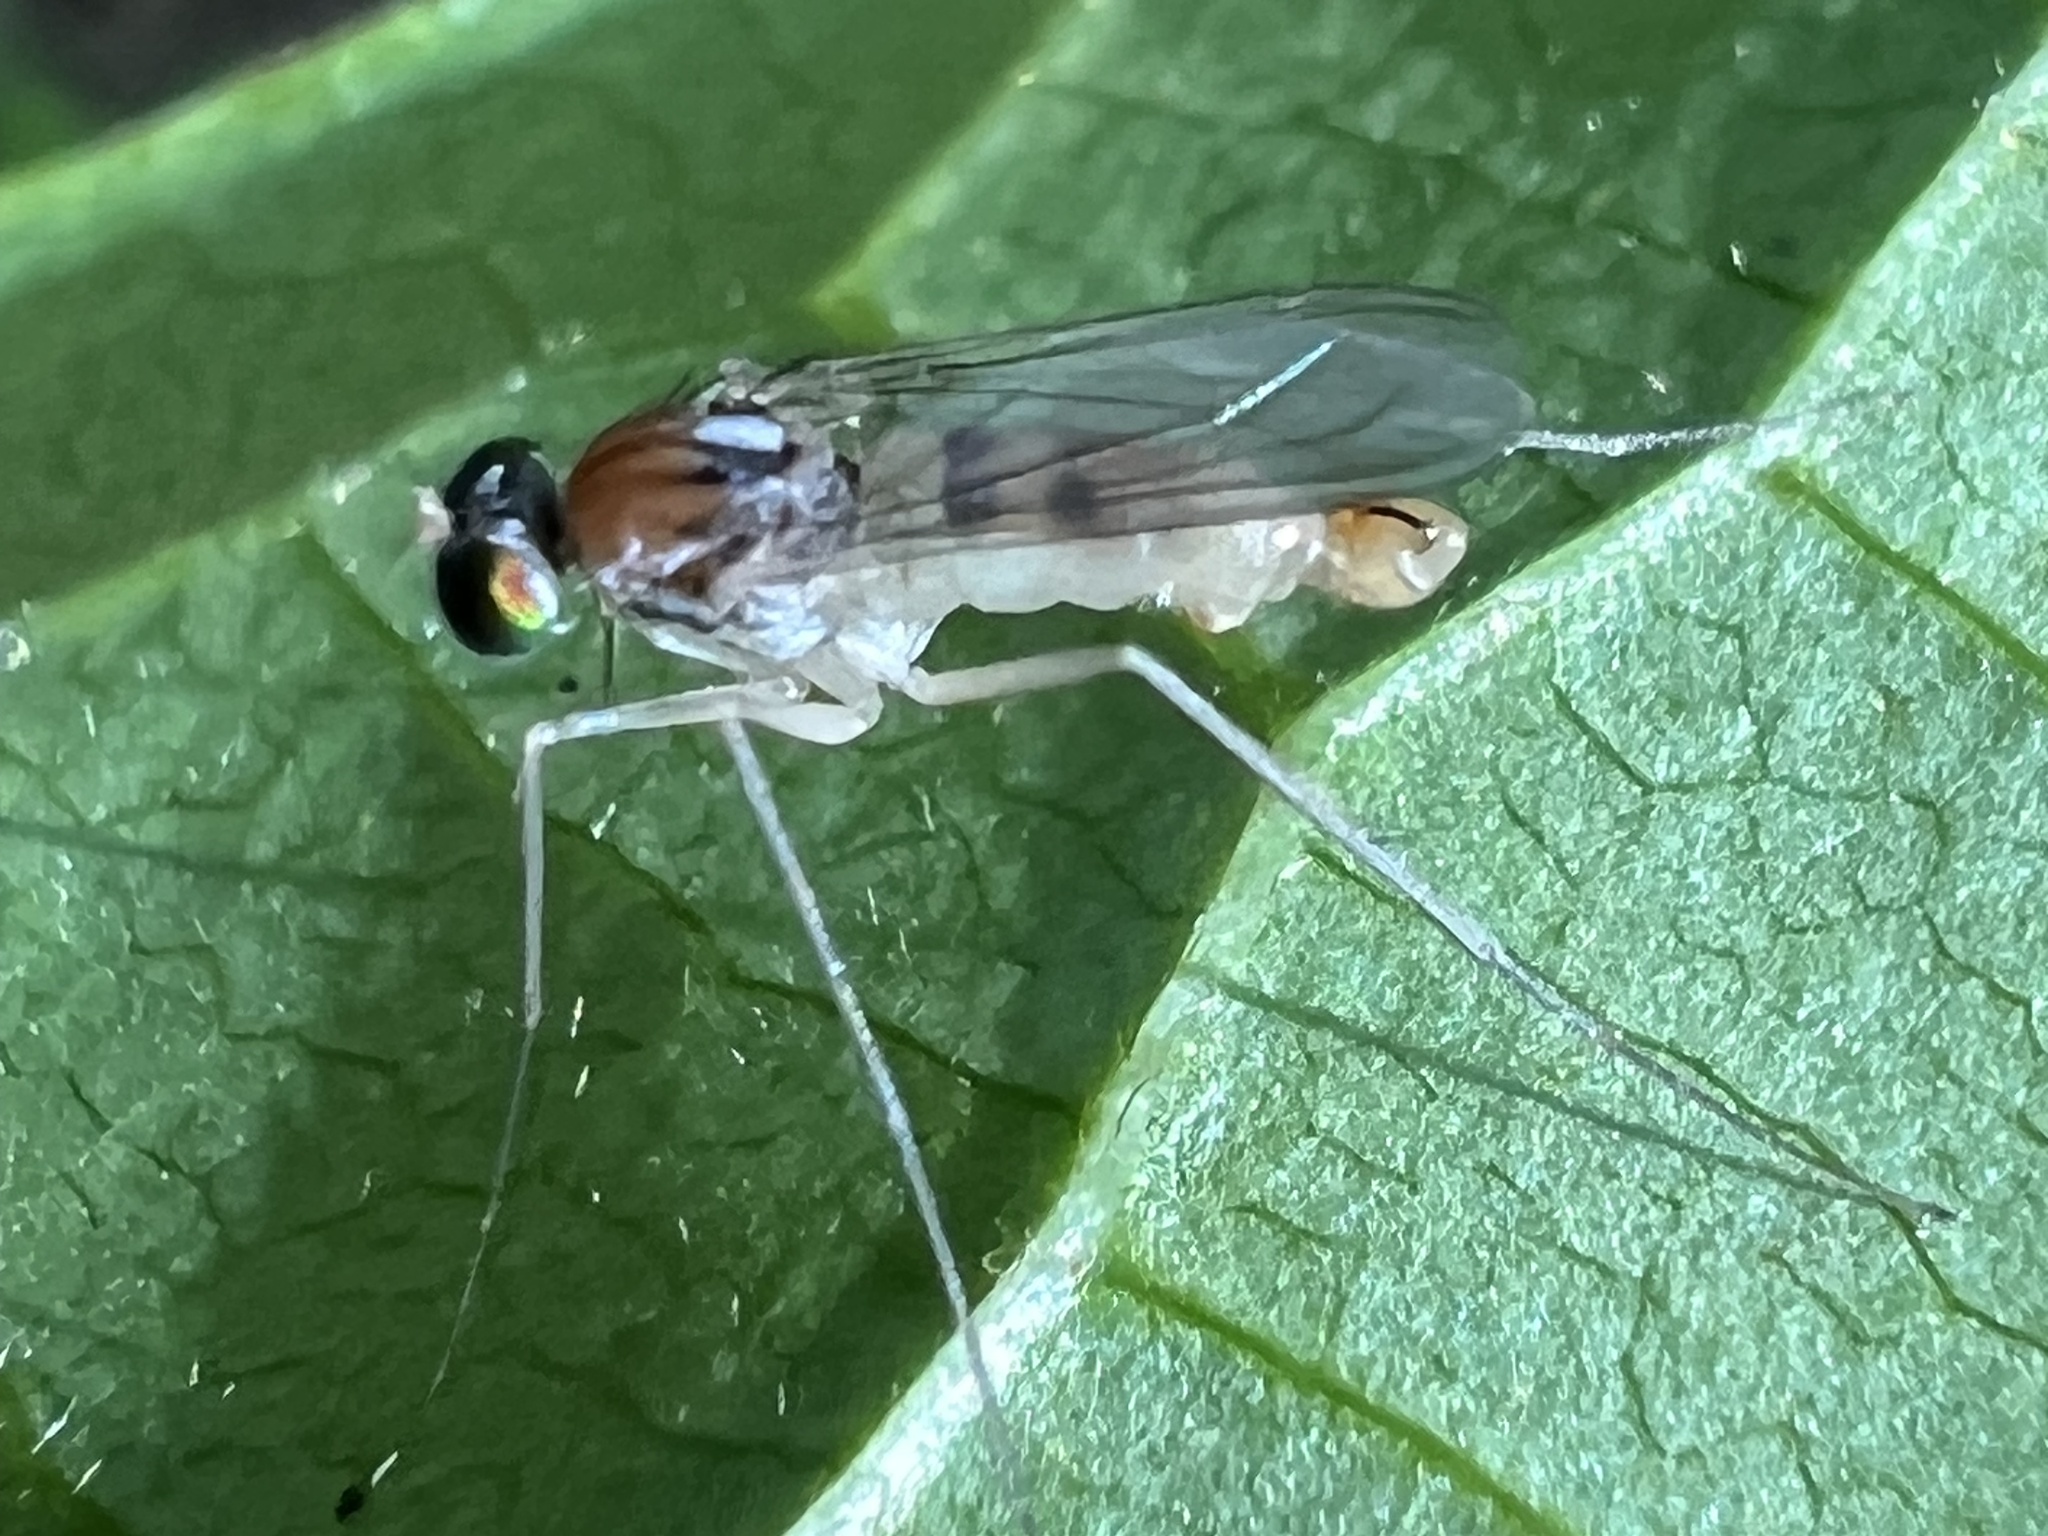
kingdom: Animalia
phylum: Arthropoda
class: Insecta
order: Diptera
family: Dolichopodidae
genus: Neurigona
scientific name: Neurigona carbonifer
